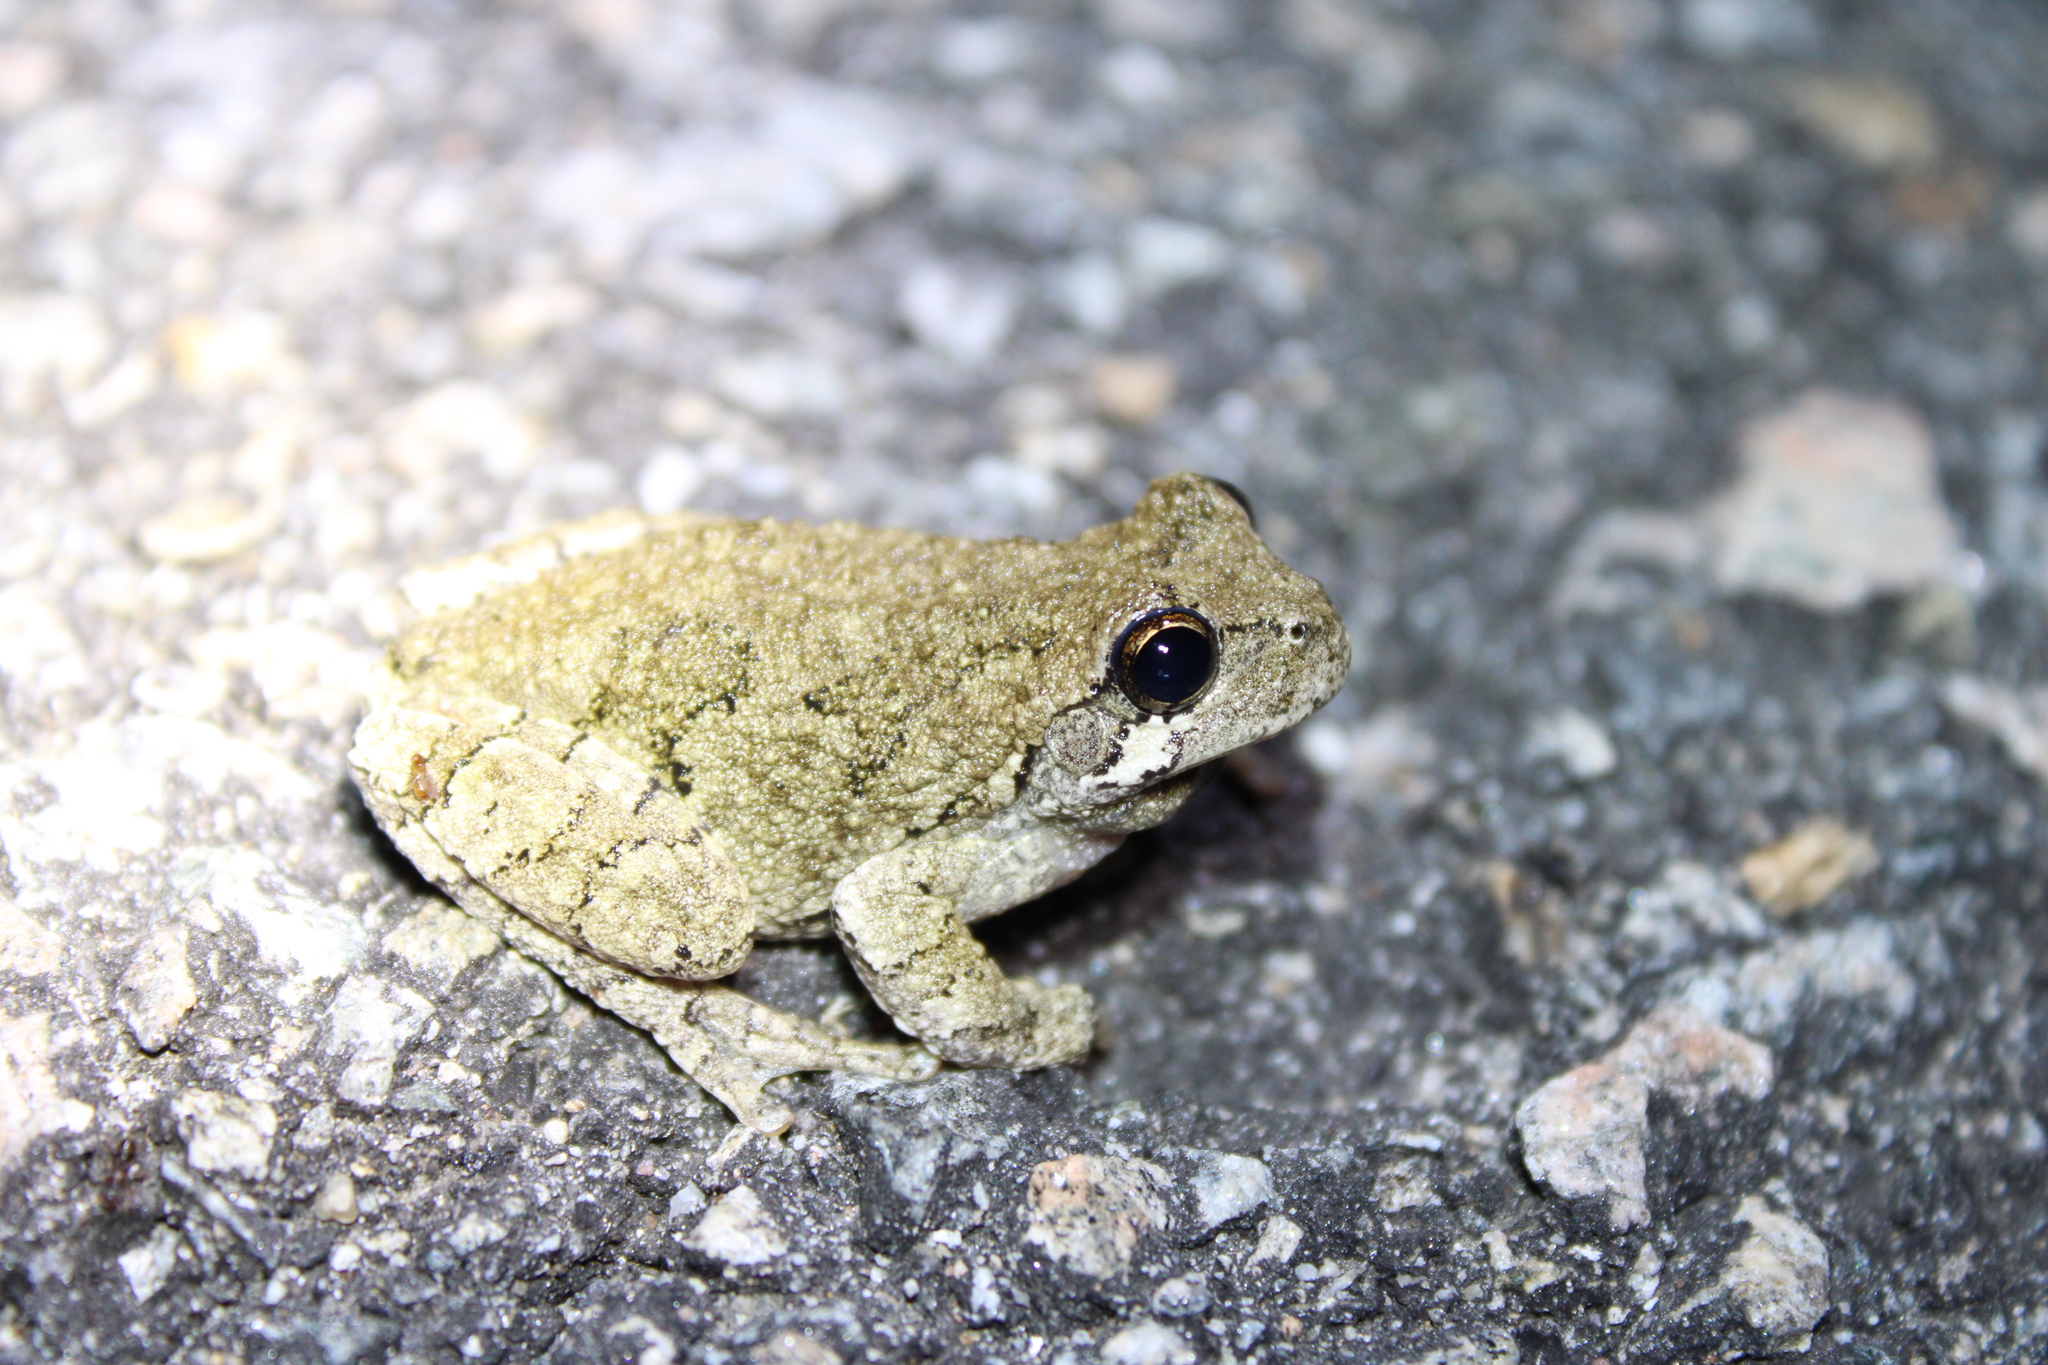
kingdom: Animalia
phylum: Chordata
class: Amphibia
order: Anura
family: Hylidae
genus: Dryophytes
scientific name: Dryophytes versicolor
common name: Gray treefrog
